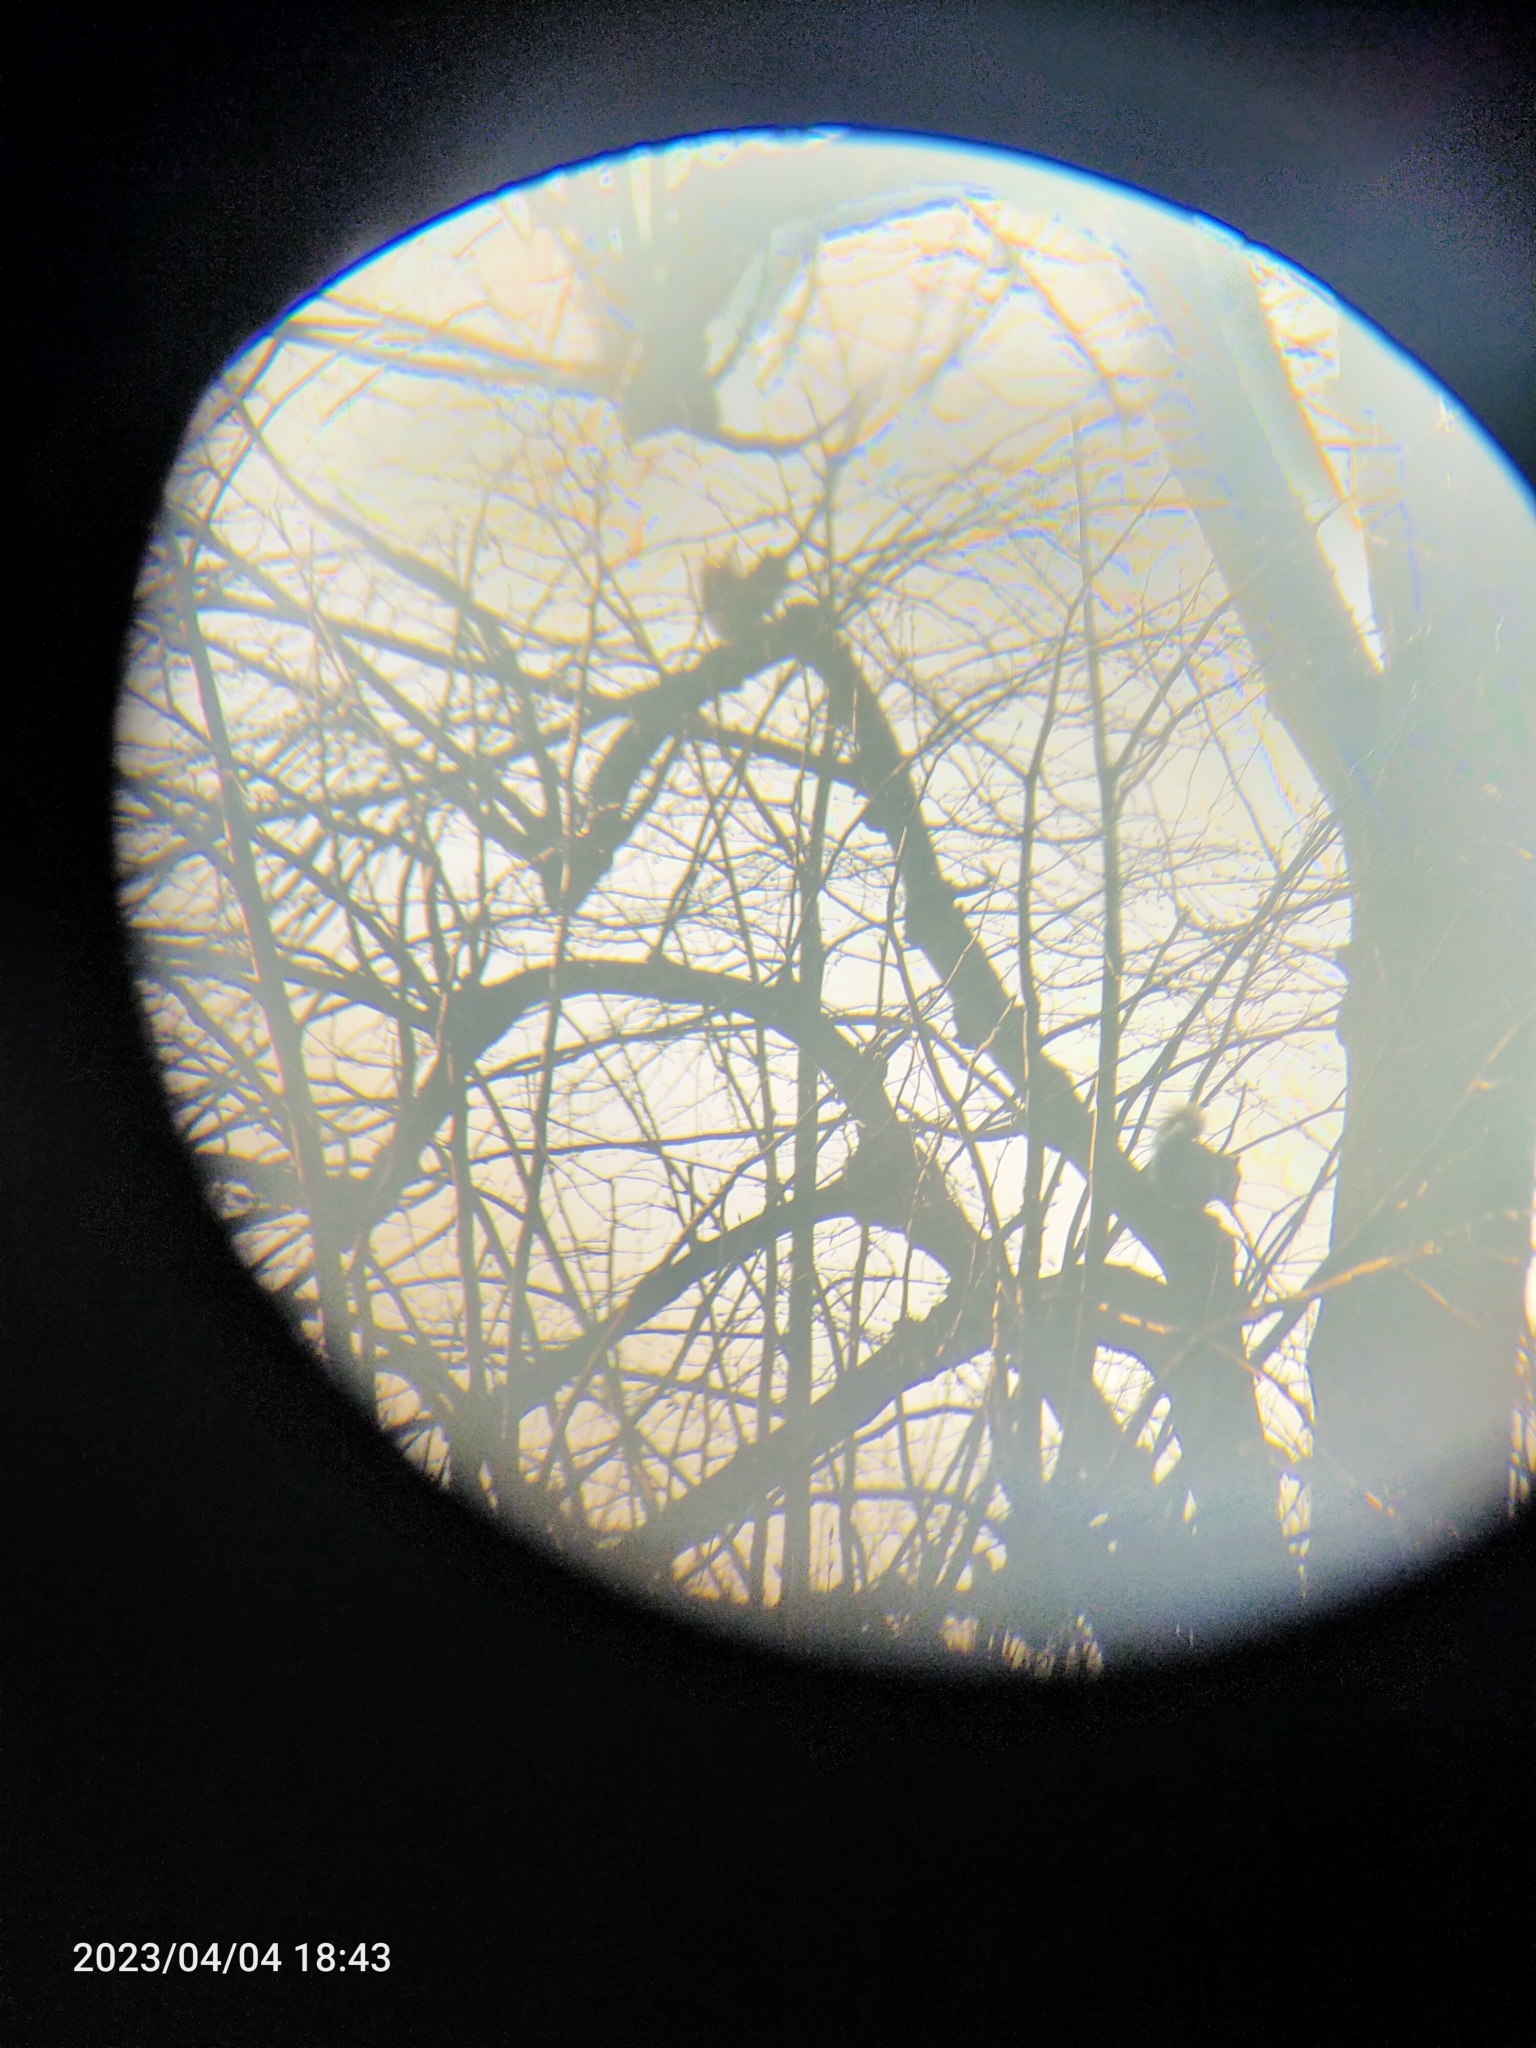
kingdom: Animalia
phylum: Chordata
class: Mammalia
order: Rodentia
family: Sciuridae
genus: Sciurus
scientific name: Sciurus carolinensis
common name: Eastern gray squirrel
